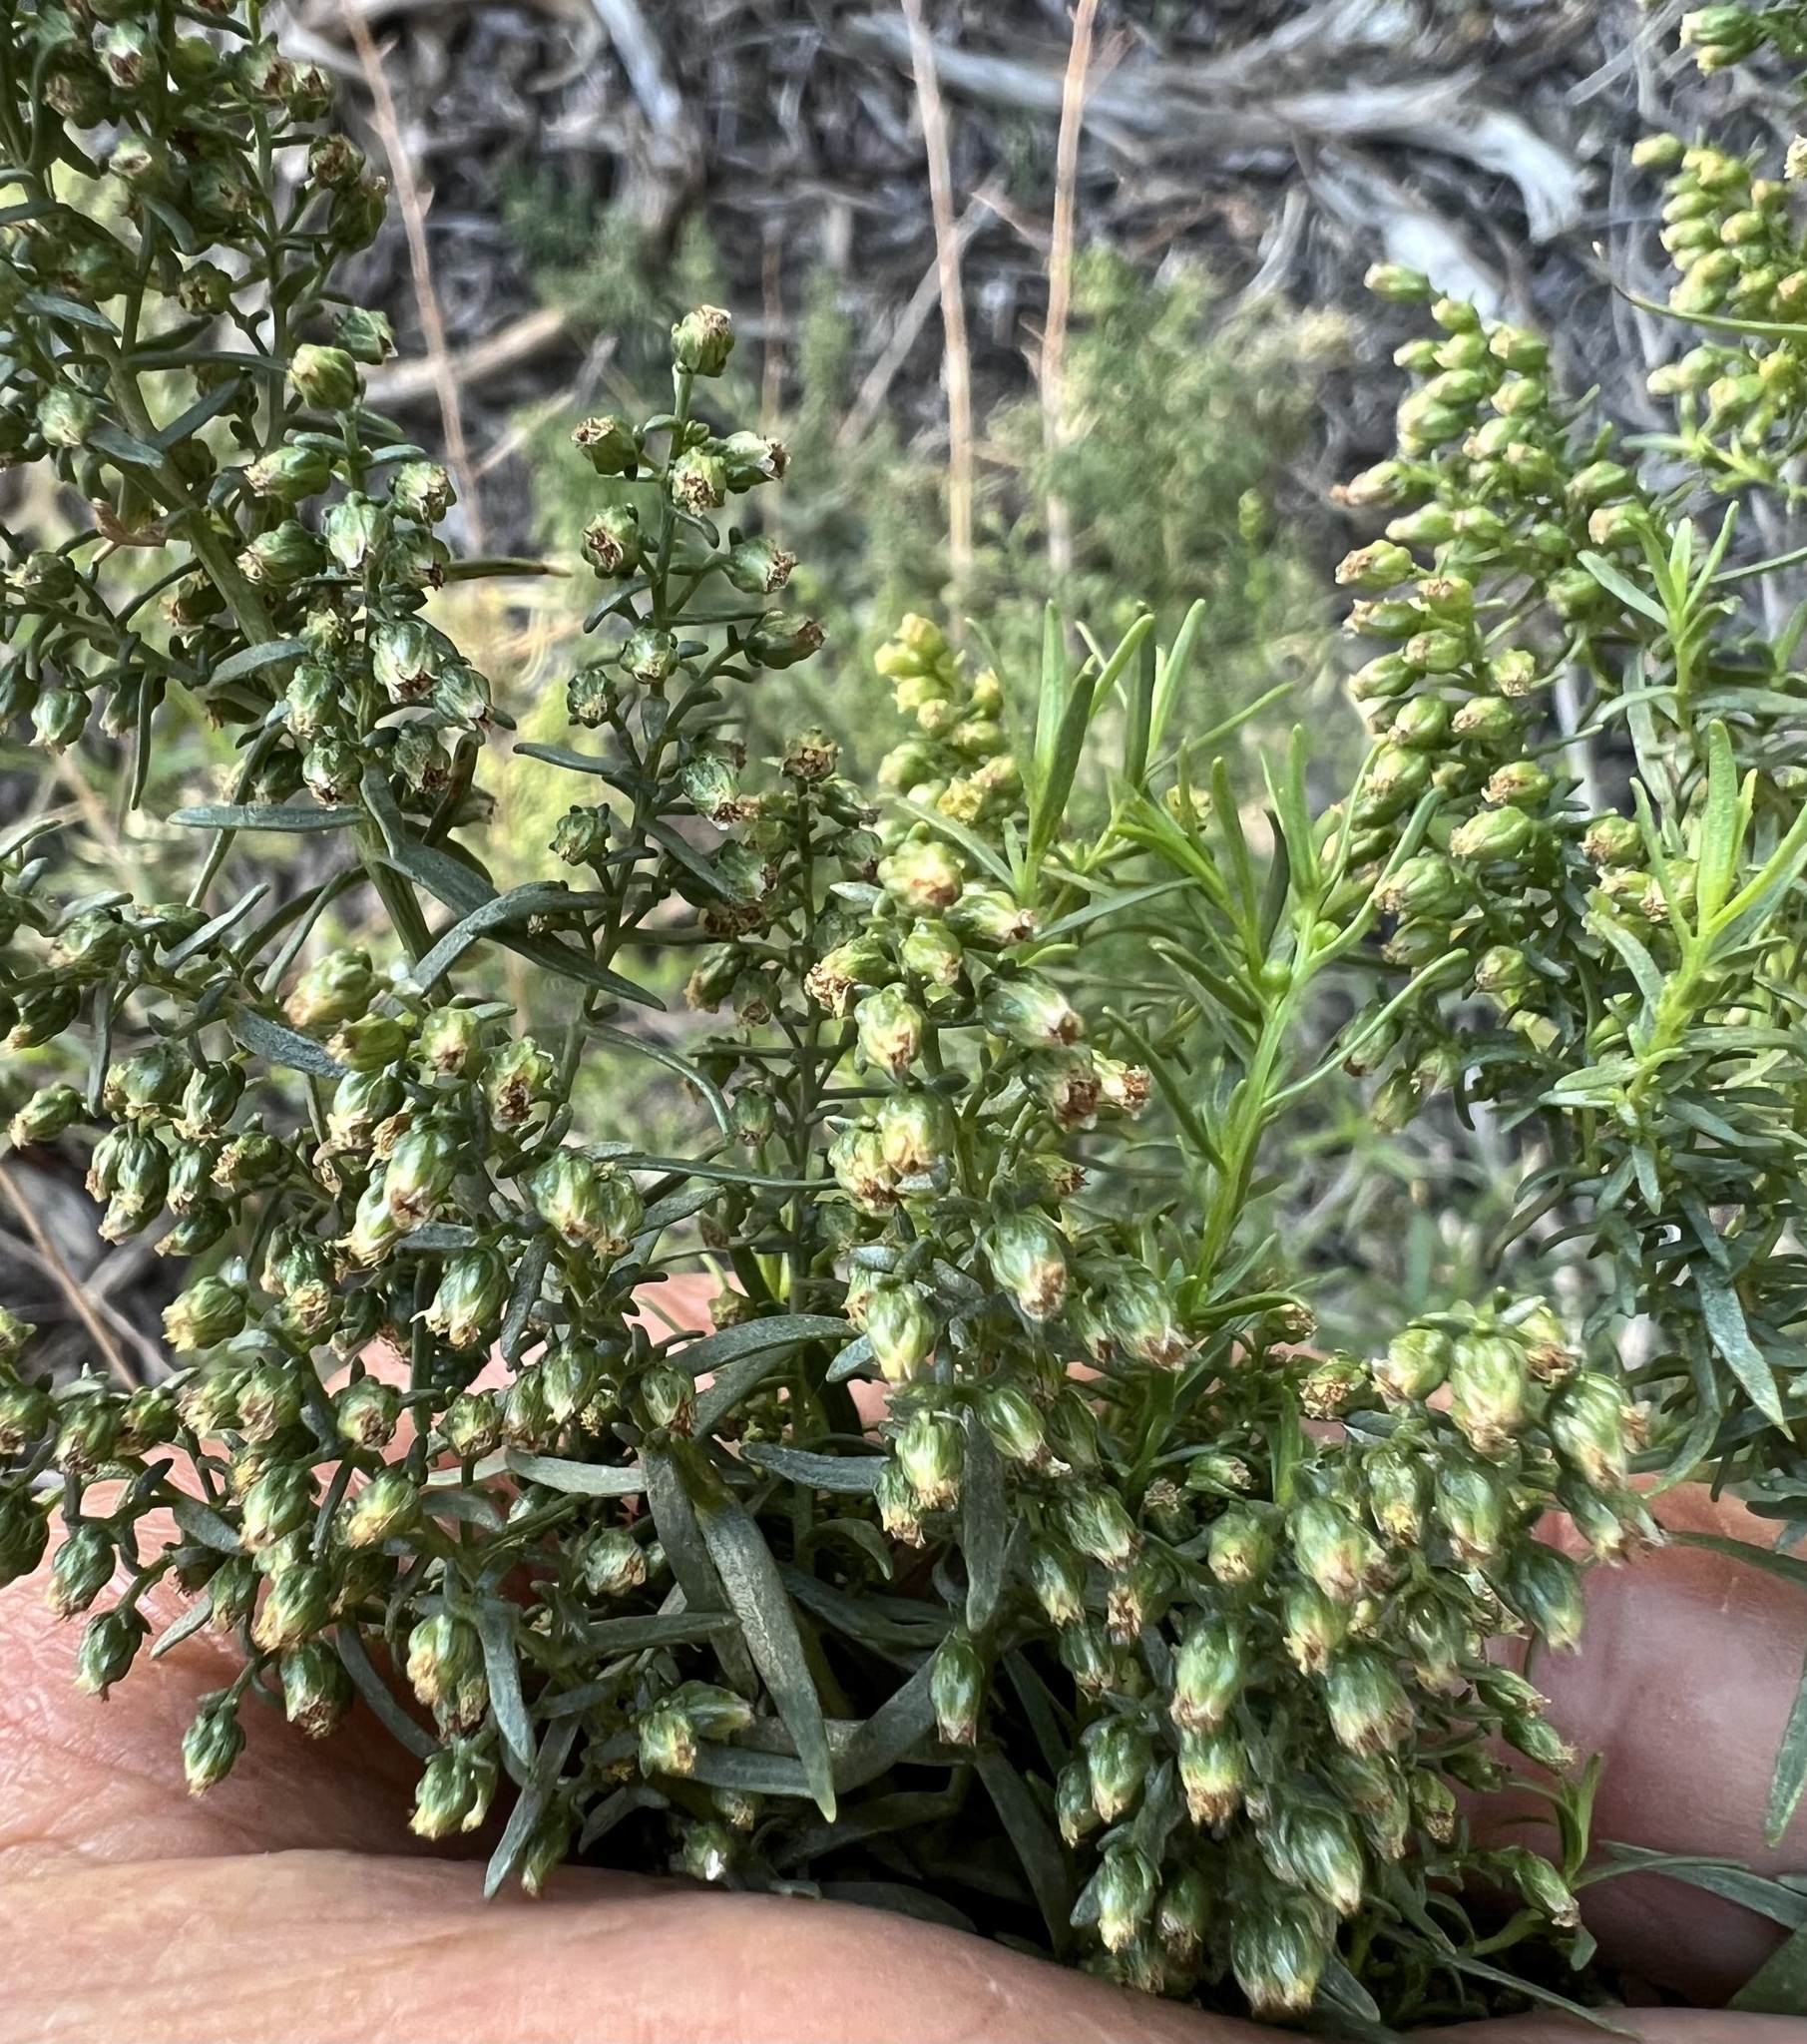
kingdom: Plantae
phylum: Tracheophyta
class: Magnoliopsida
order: Asterales
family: Asteraceae
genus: Artemisia
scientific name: Artemisia dracunculus
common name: Tarragon
